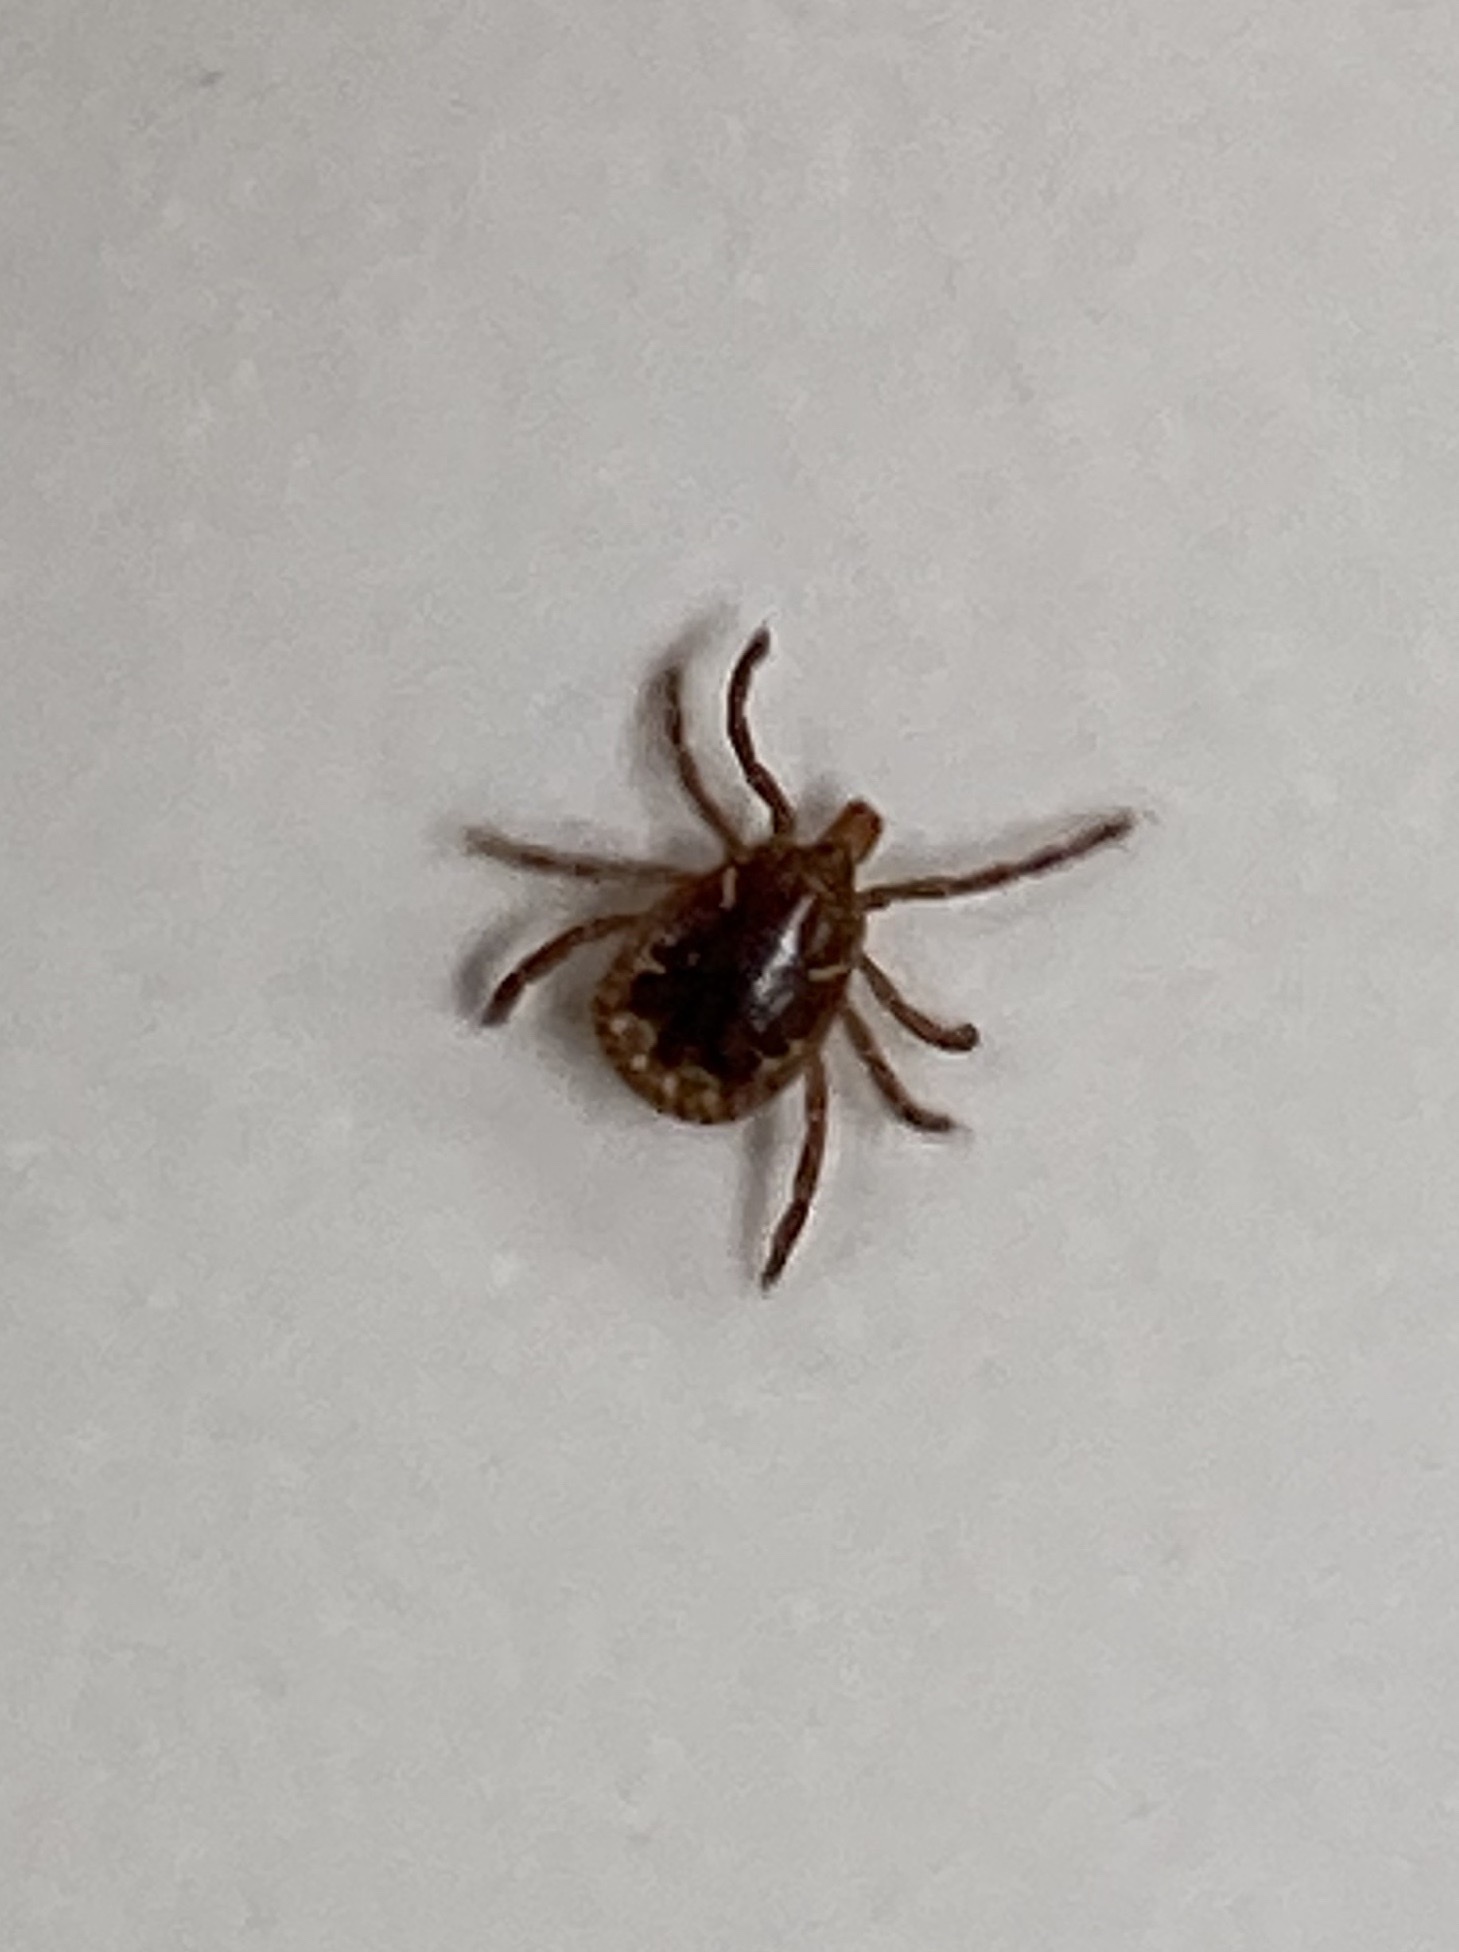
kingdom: Animalia
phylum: Arthropoda
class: Arachnida
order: Ixodida
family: Ixodidae
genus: Amblyomma
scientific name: Amblyomma americanum
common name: Lone star tick
